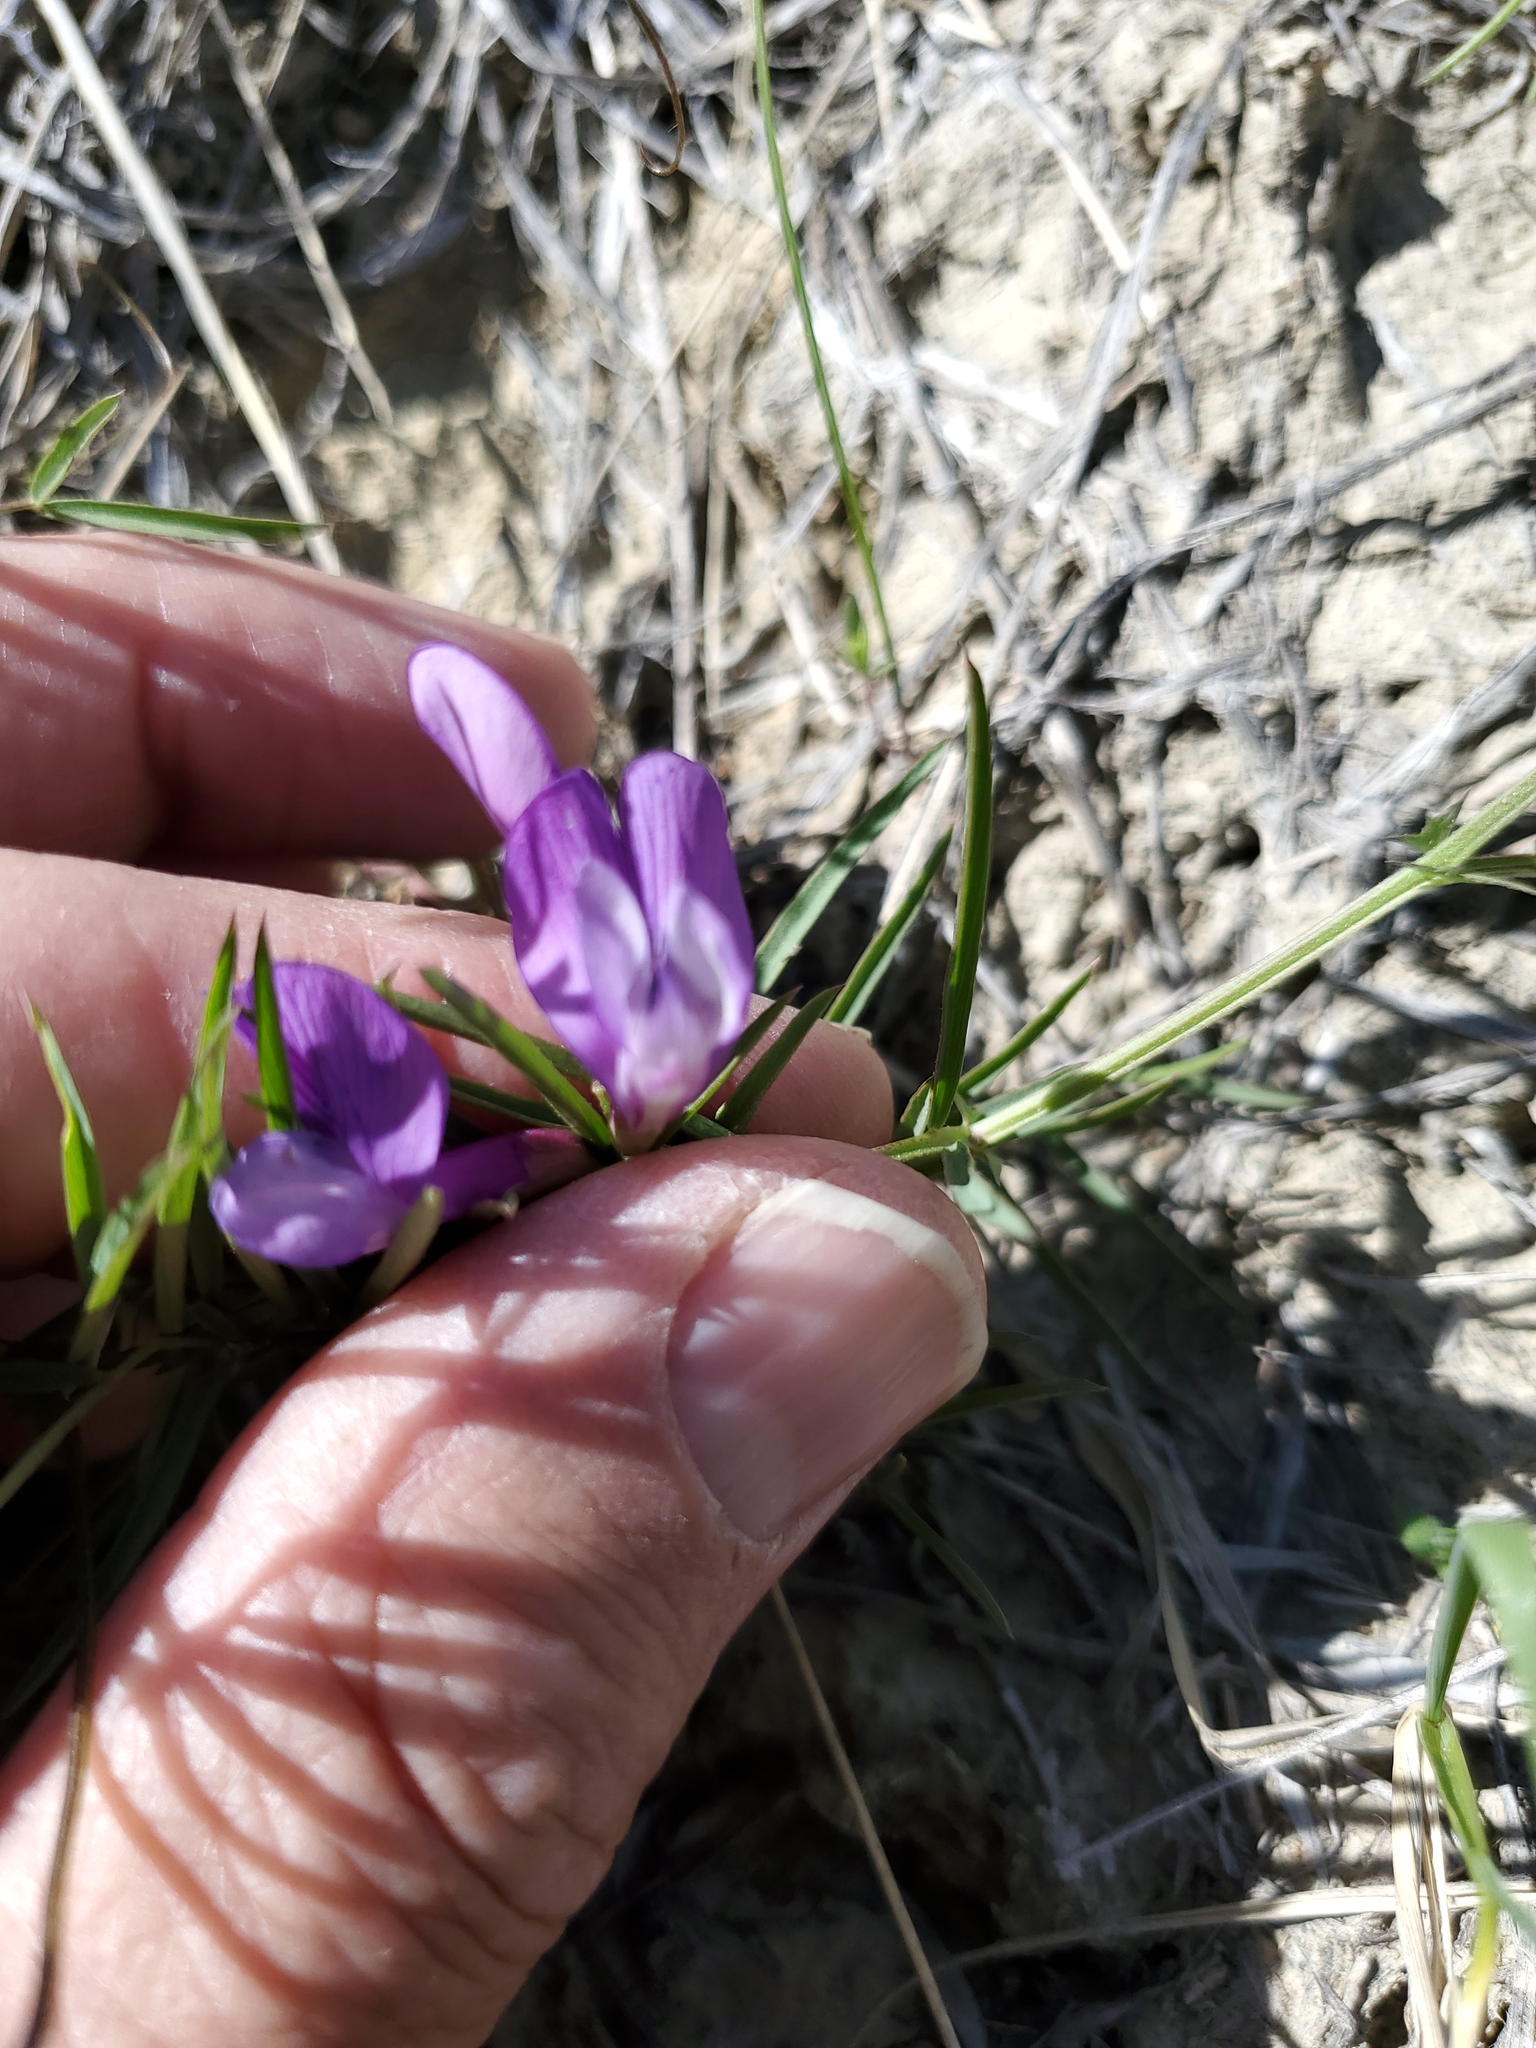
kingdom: Plantae
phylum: Tracheophyta
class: Magnoliopsida
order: Fabales
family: Fabaceae
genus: Vicia
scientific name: Vicia americana
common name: American vetch
